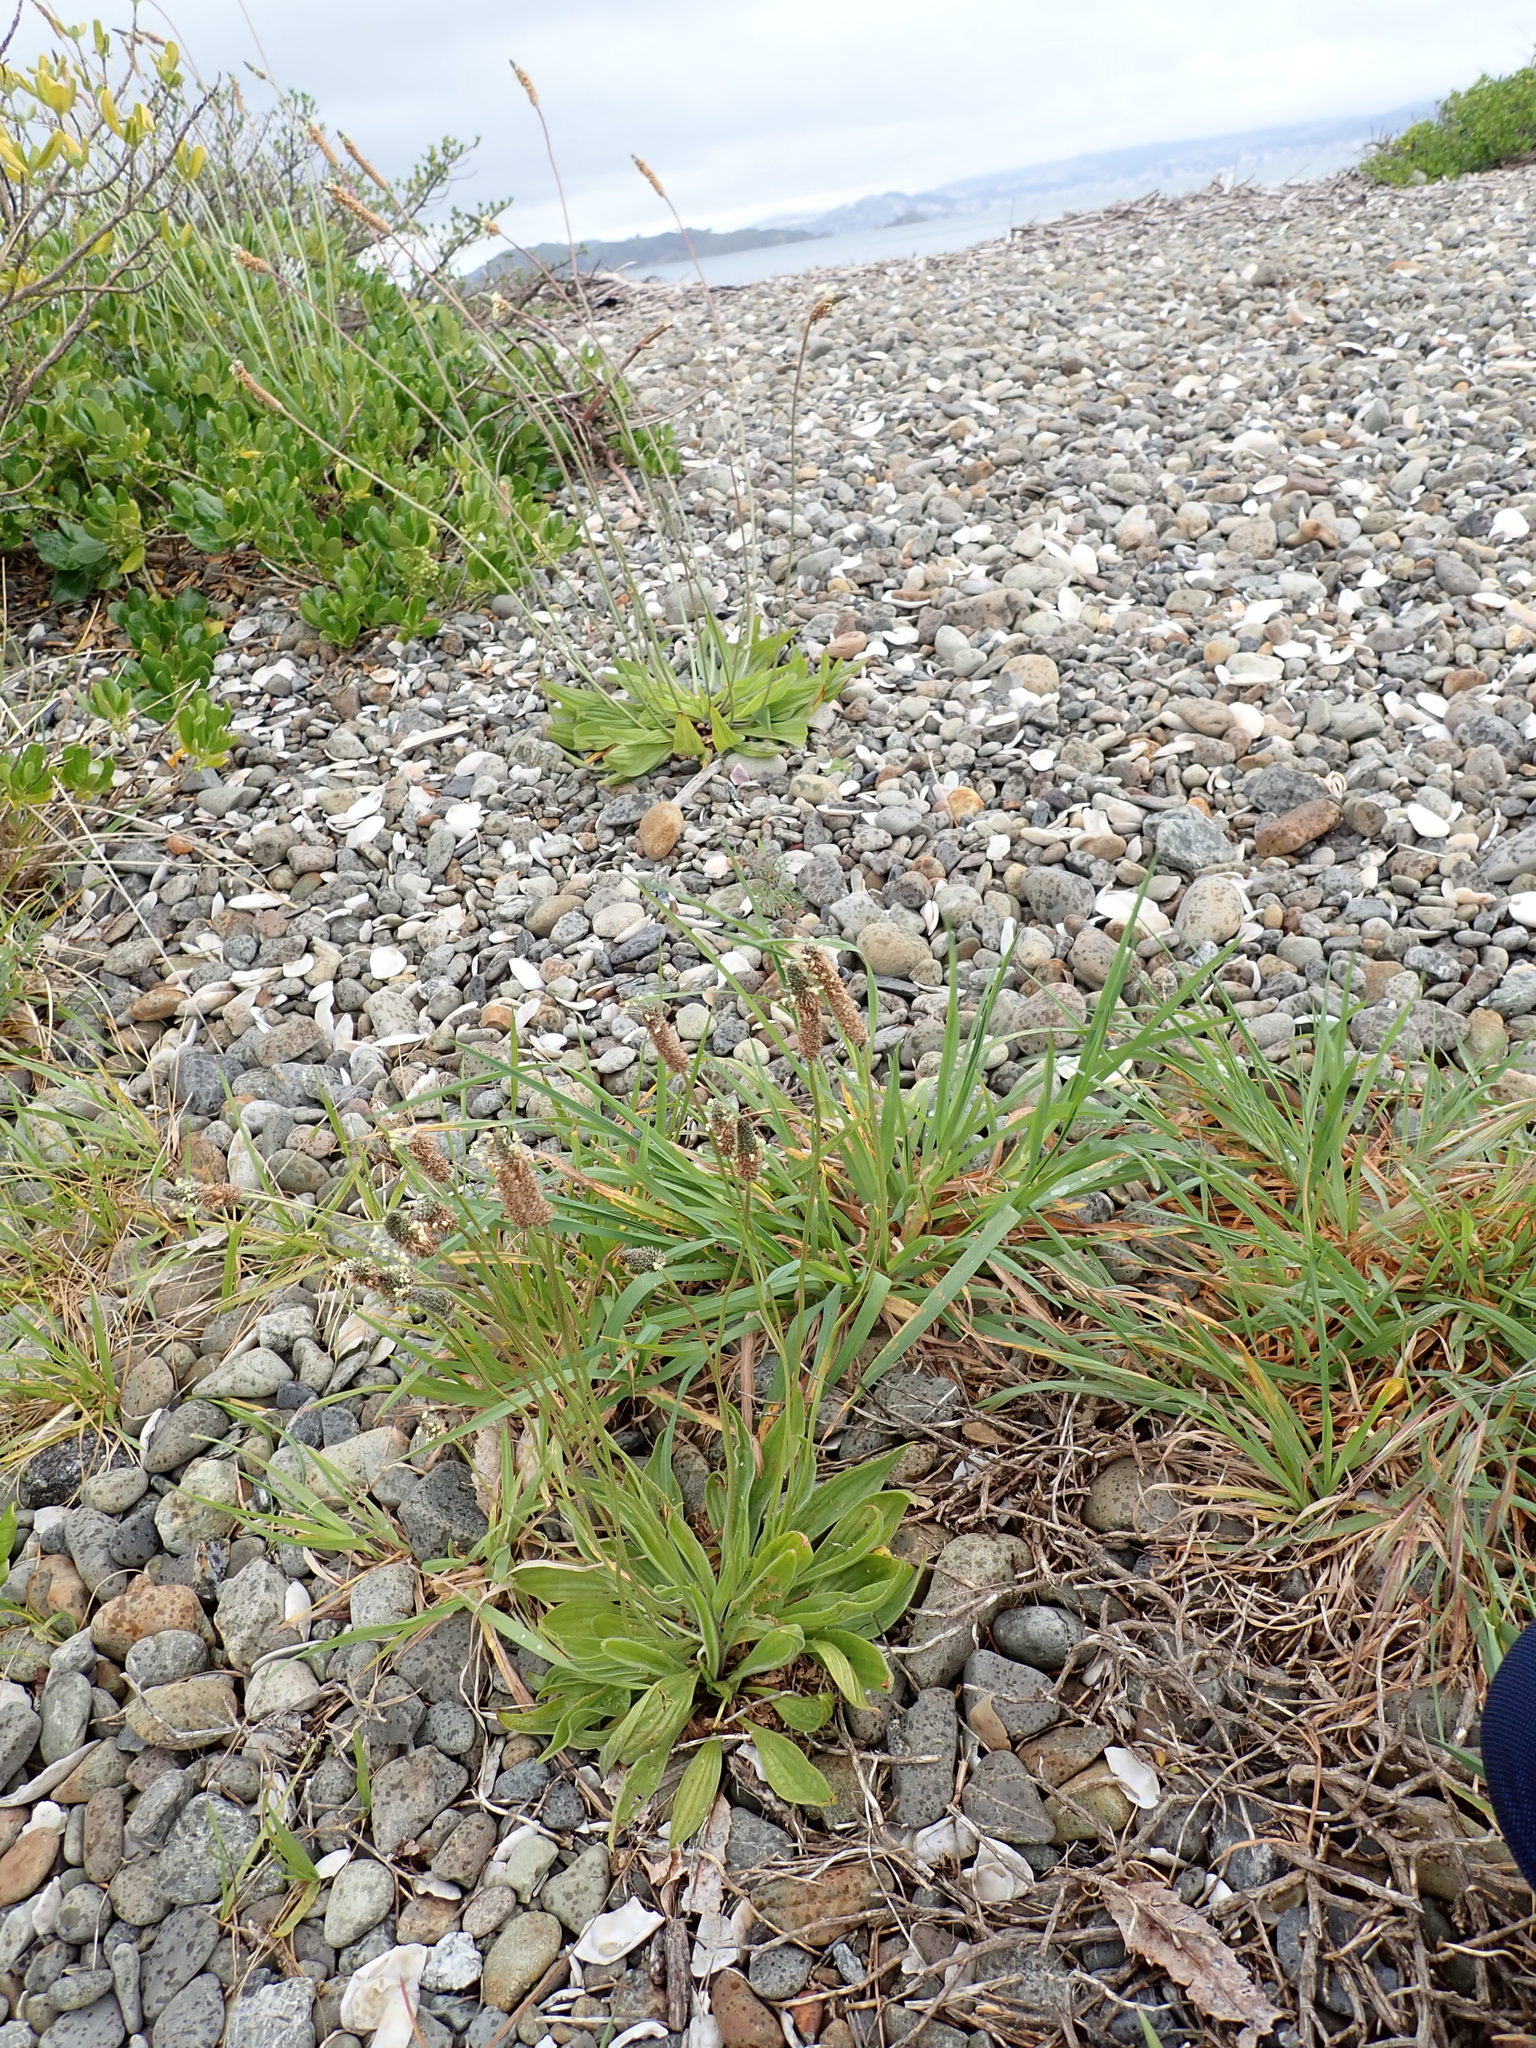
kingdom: Plantae
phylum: Tracheophyta
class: Magnoliopsida
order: Lamiales
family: Plantaginaceae
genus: Plantago
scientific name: Plantago lanceolata
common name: Ribwort plantain
